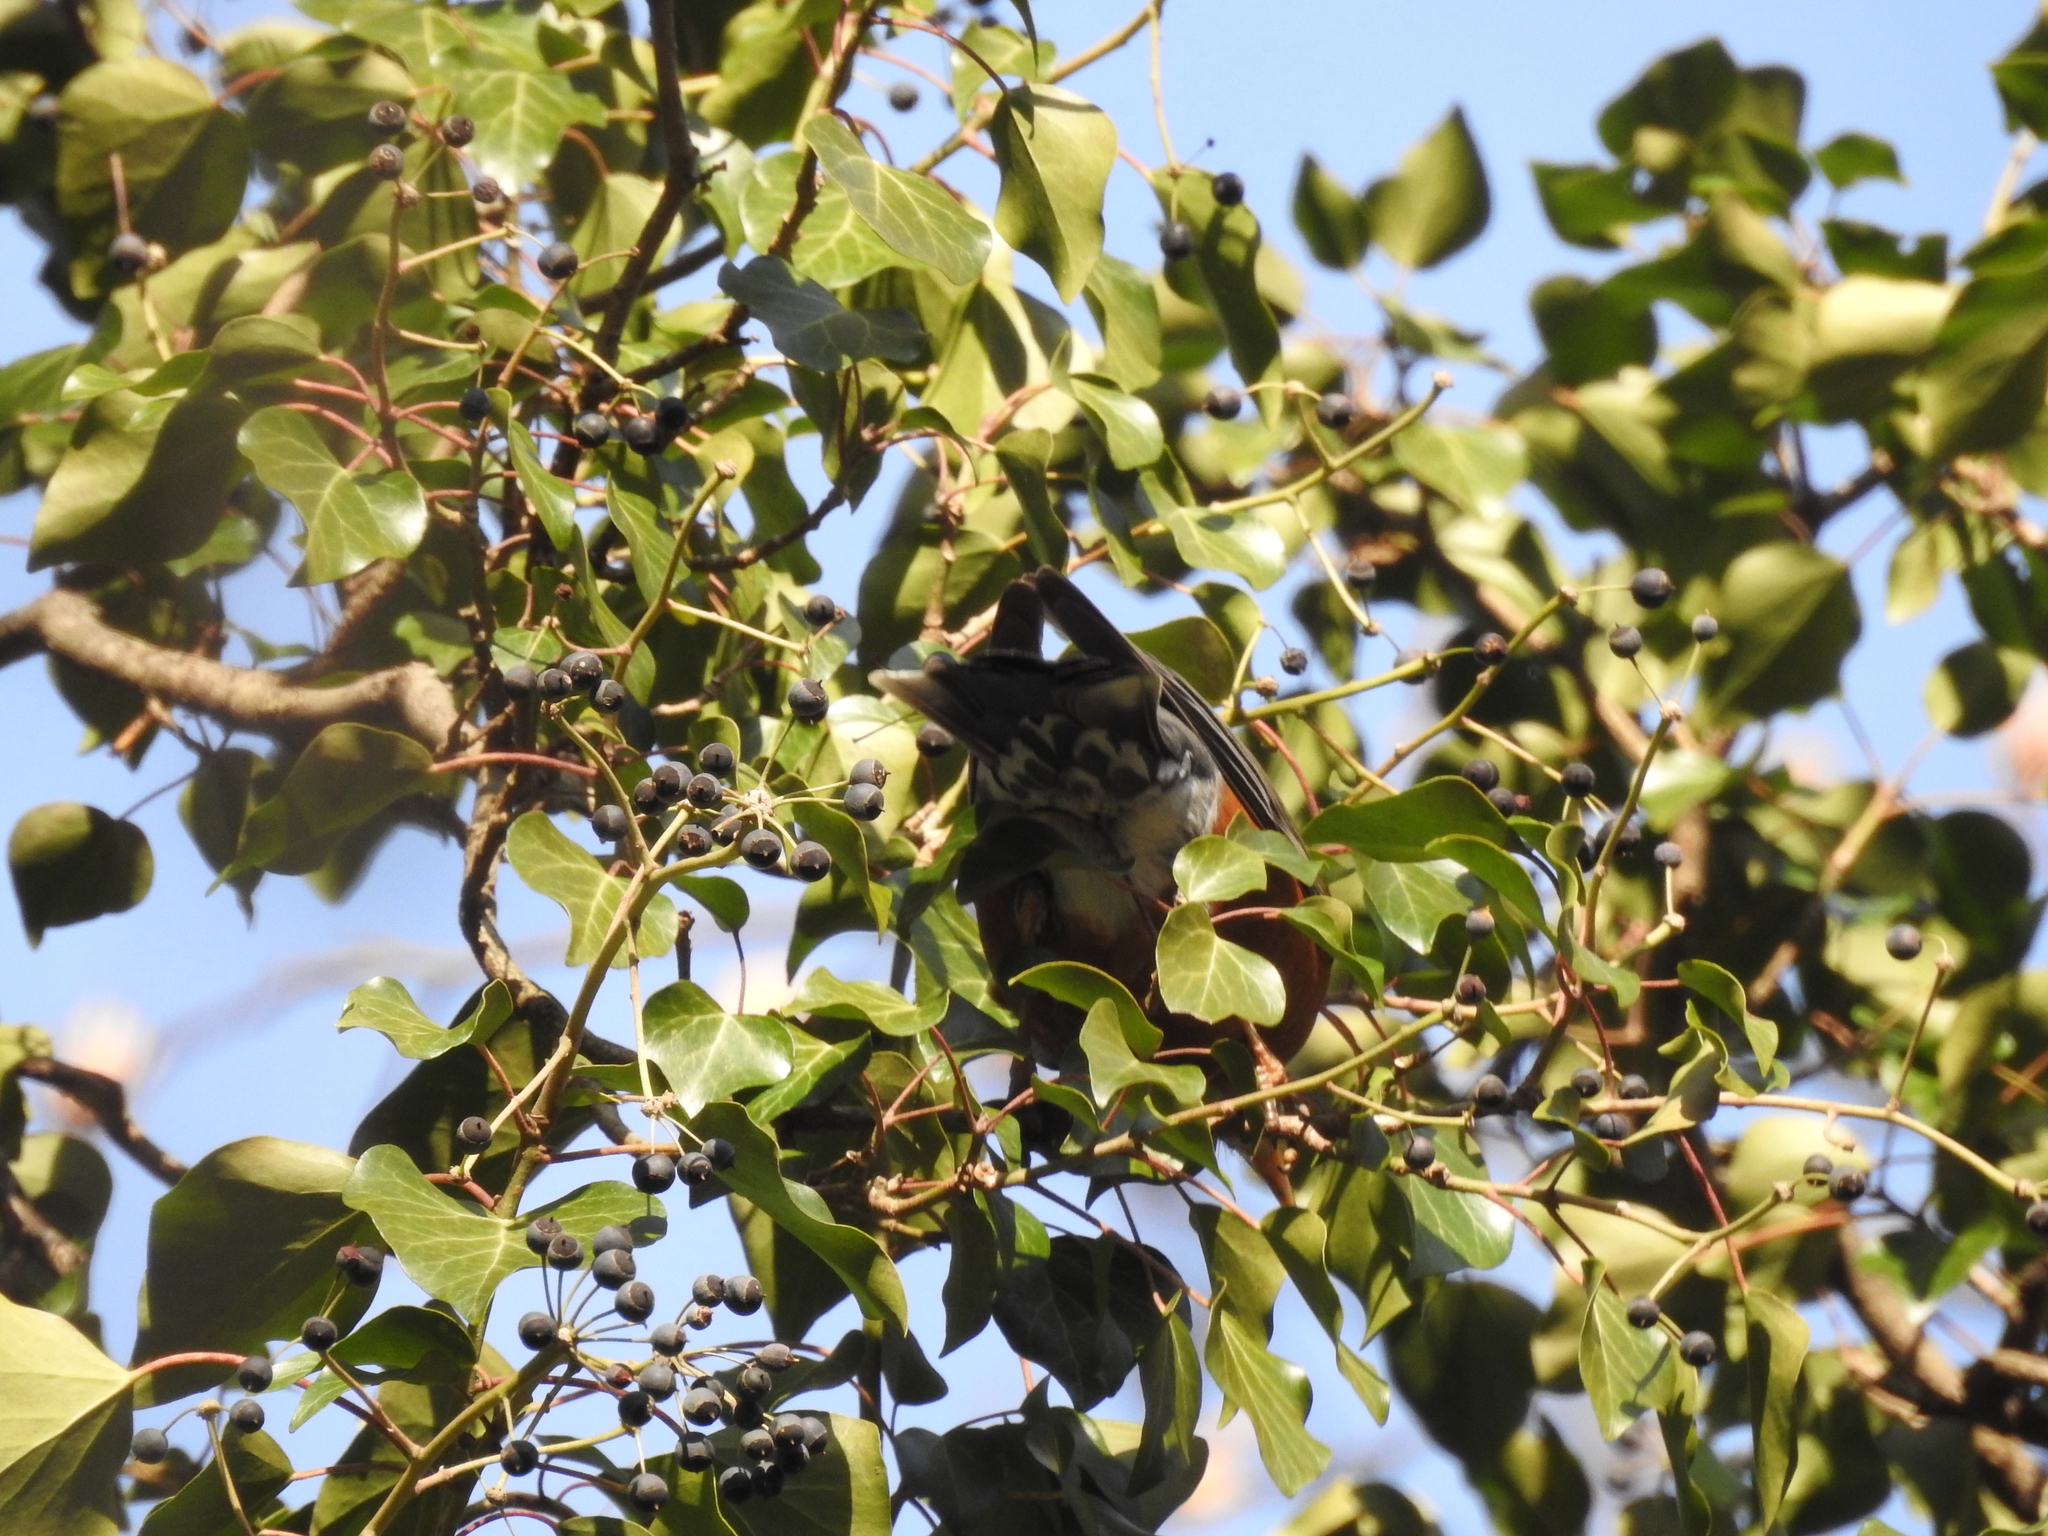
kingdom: Animalia
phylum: Chordata
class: Aves
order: Passeriformes
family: Turdidae
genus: Turdus
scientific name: Turdus migratorius
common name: American robin
